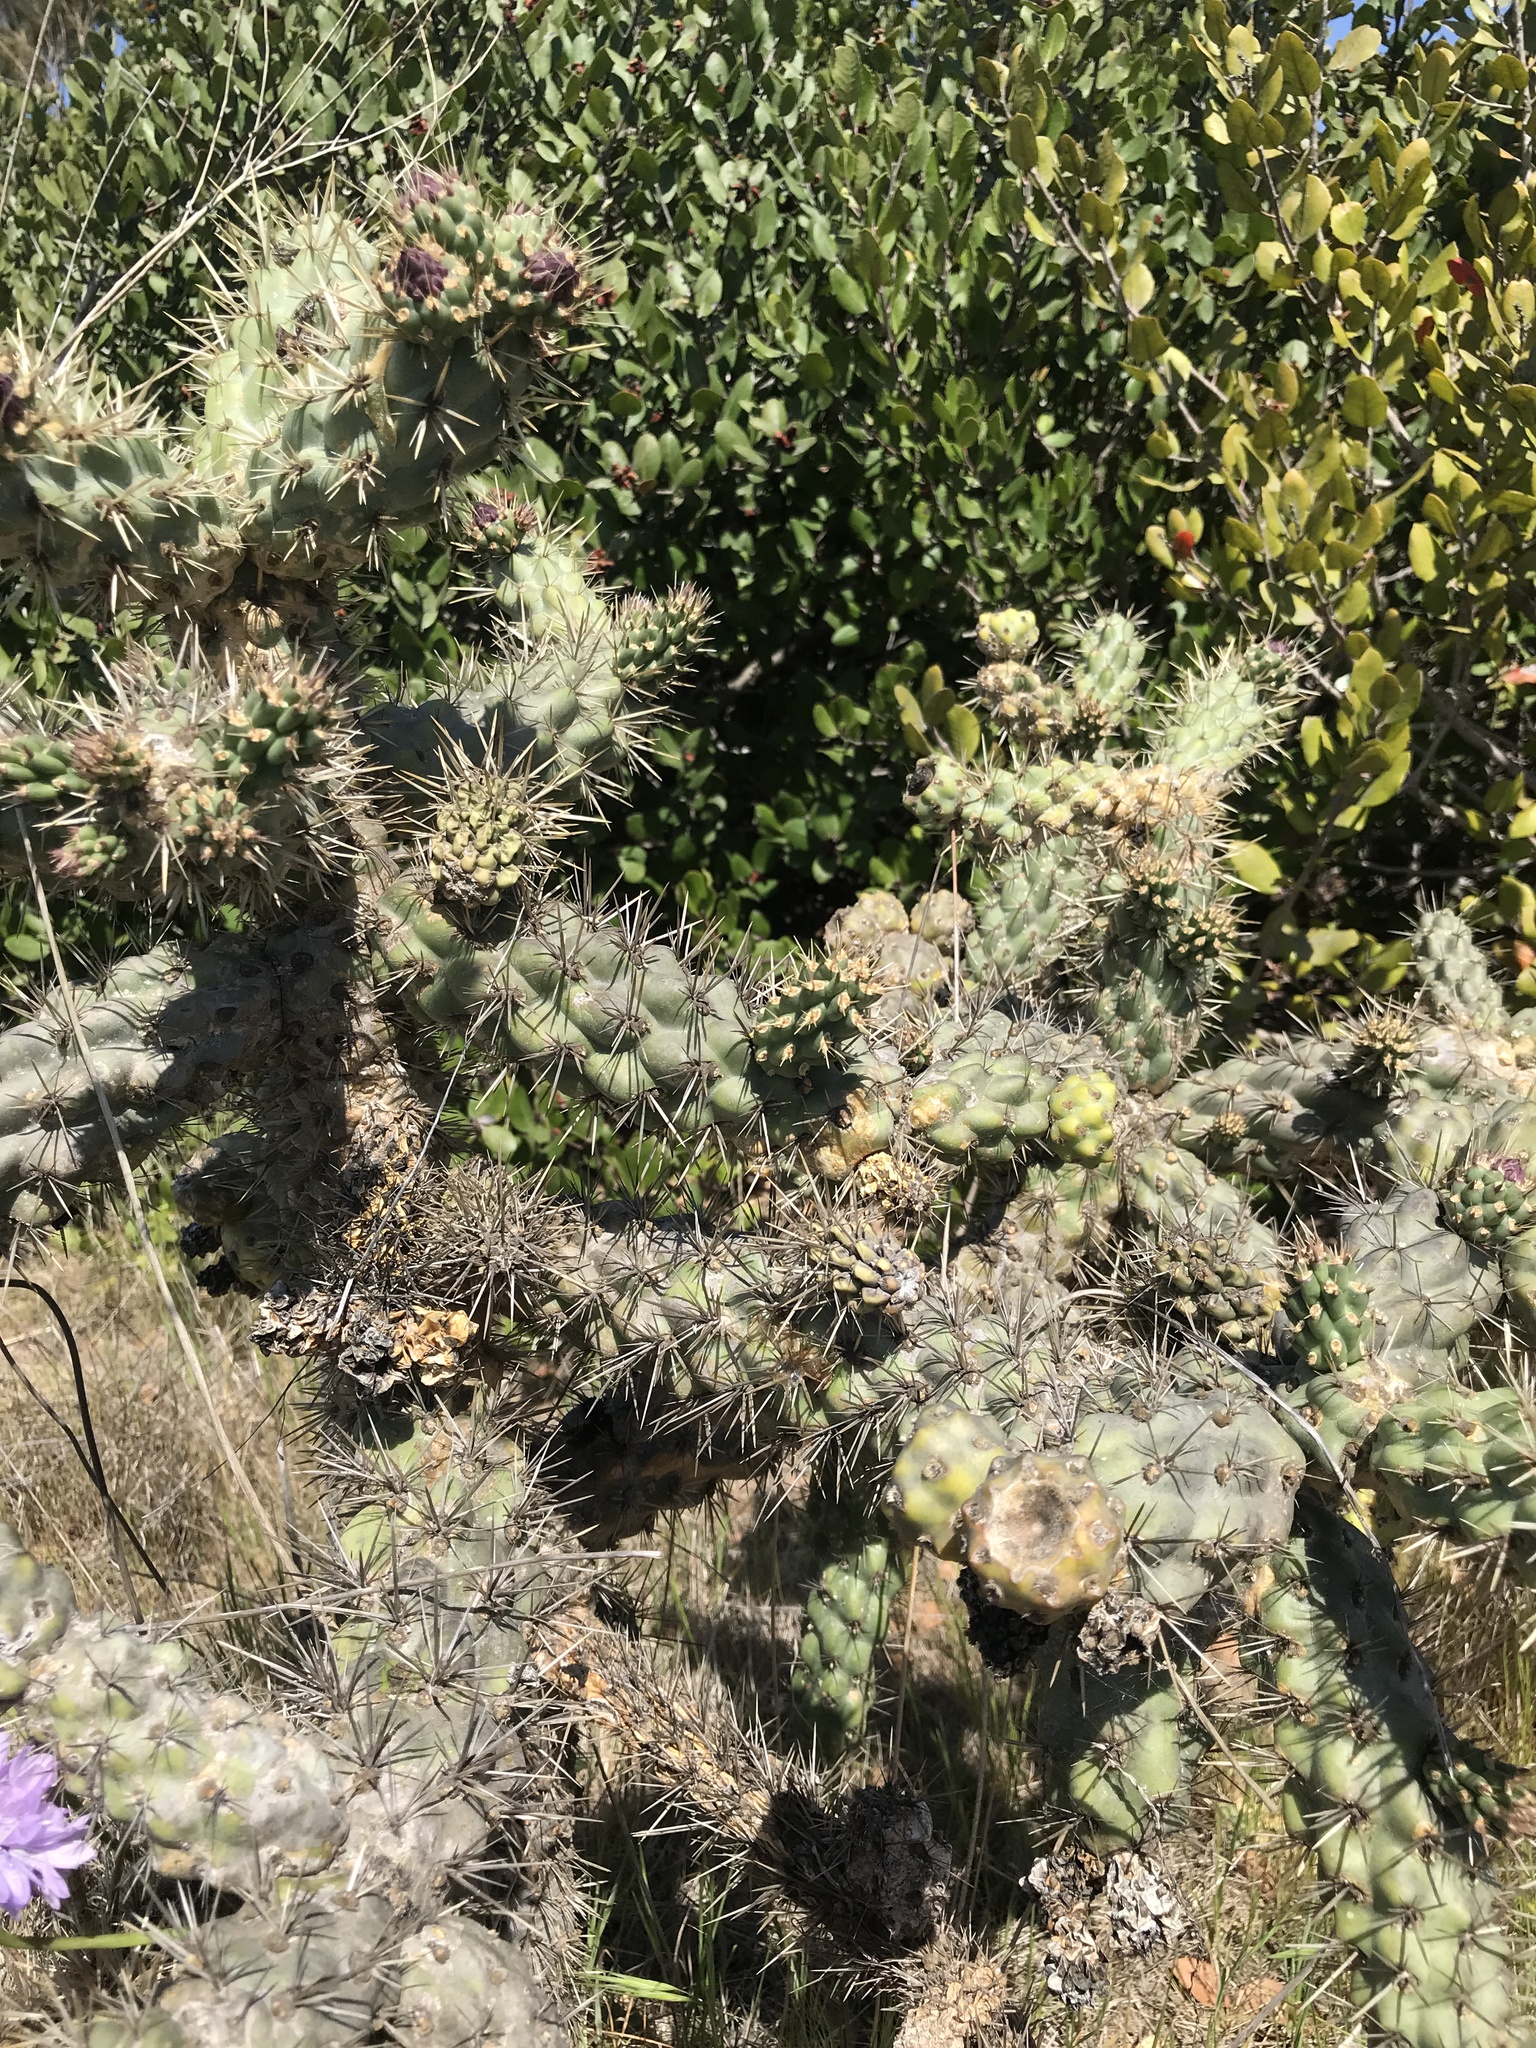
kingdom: Plantae
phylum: Tracheophyta
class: Magnoliopsida
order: Caryophyllales
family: Cactaceae
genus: Cylindropuntia
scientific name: Cylindropuntia prolifera
